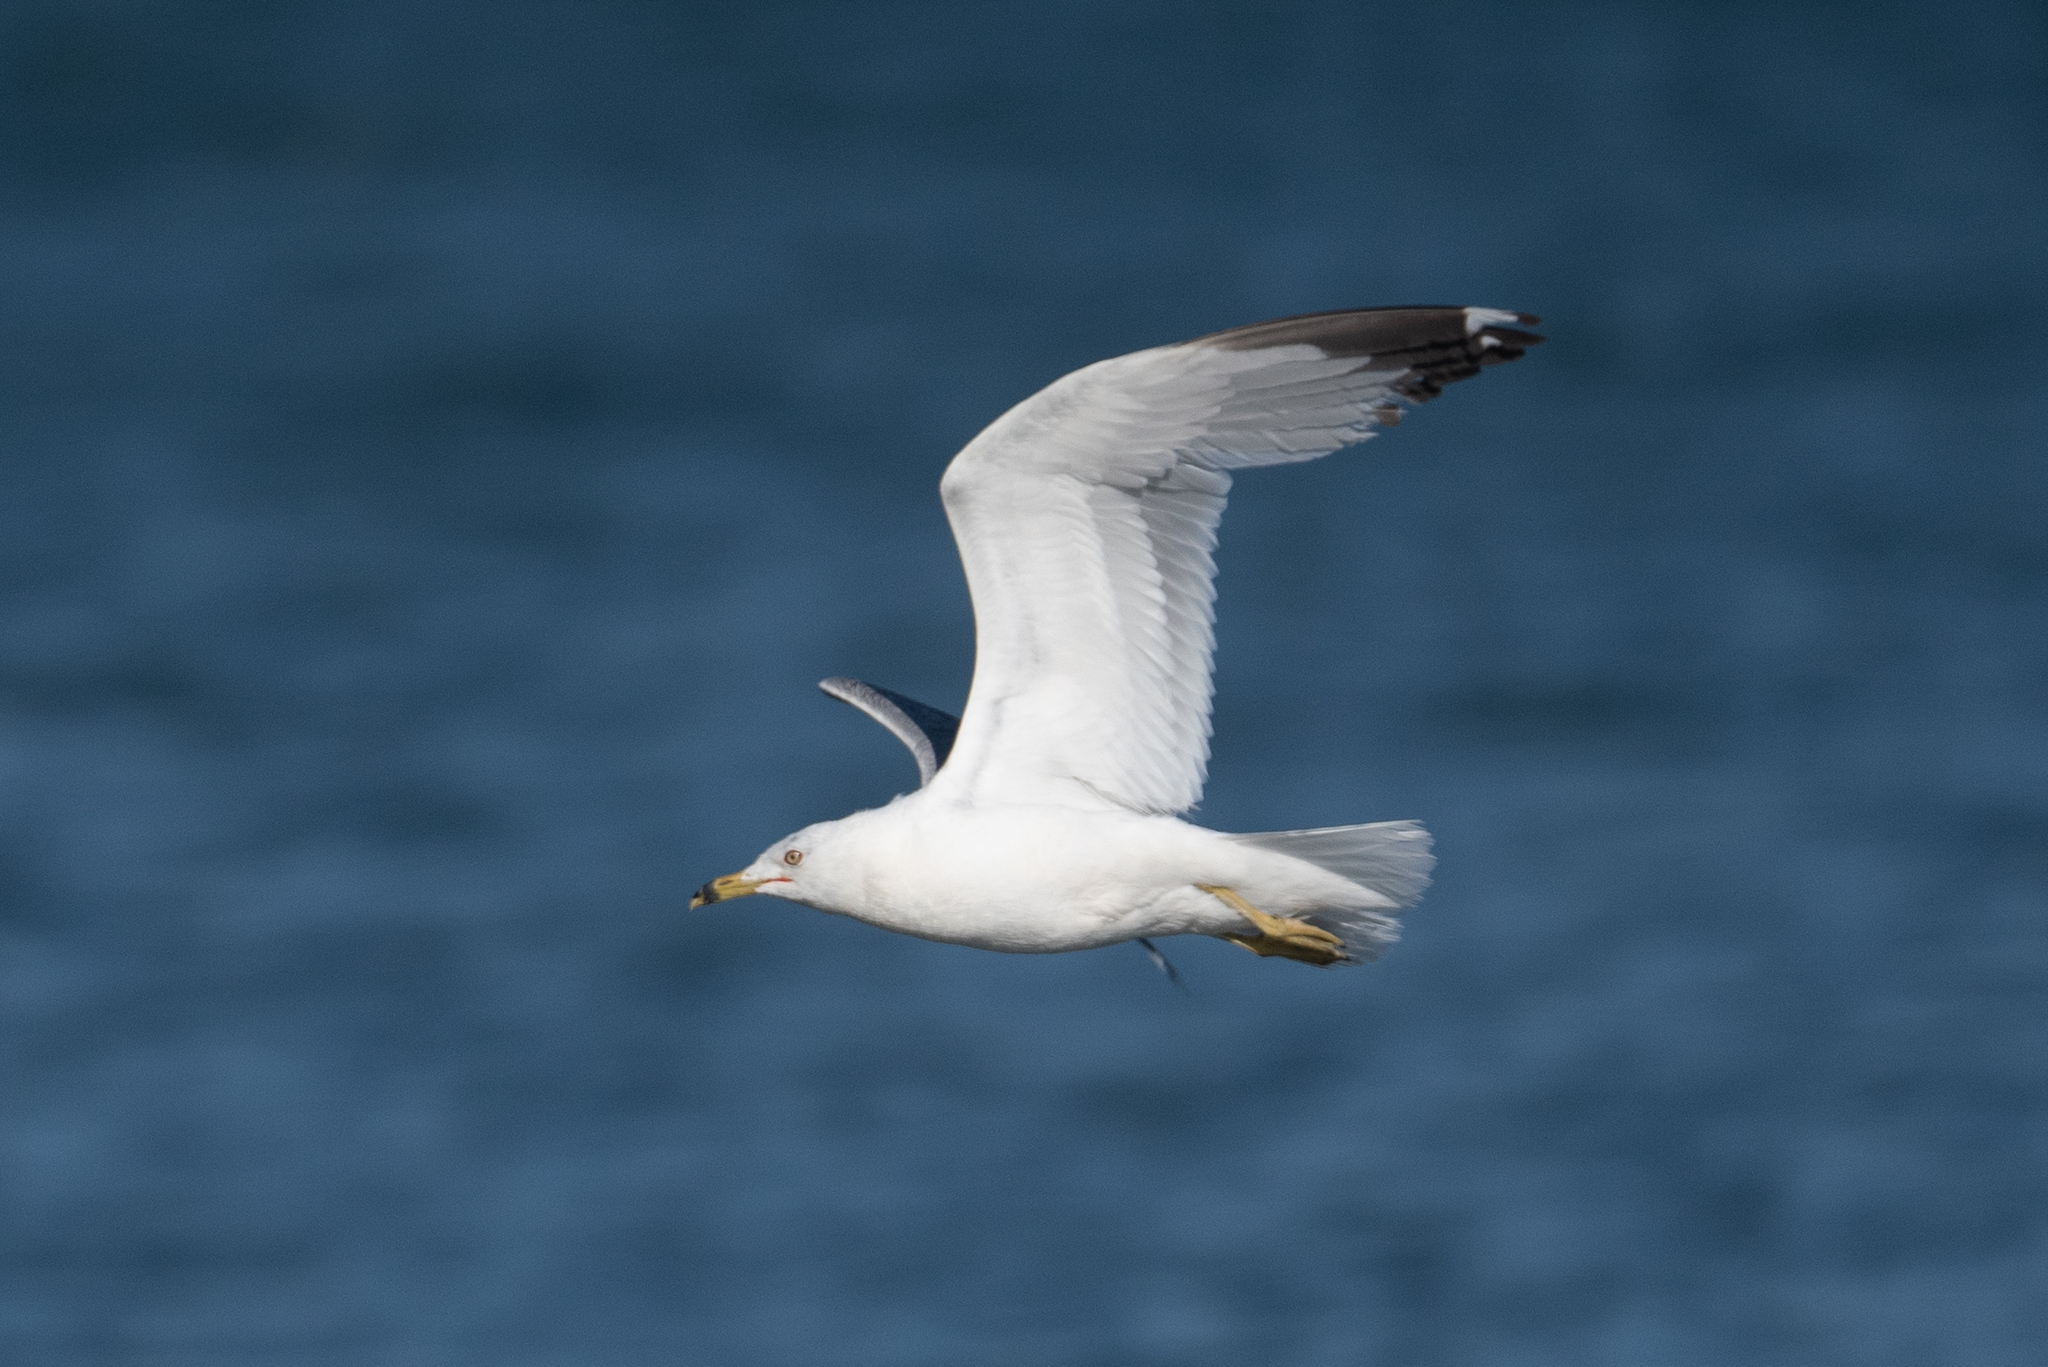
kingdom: Animalia
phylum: Chordata
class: Aves
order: Charadriiformes
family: Laridae
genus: Larus
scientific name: Larus delawarensis
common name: Ring-billed gull
